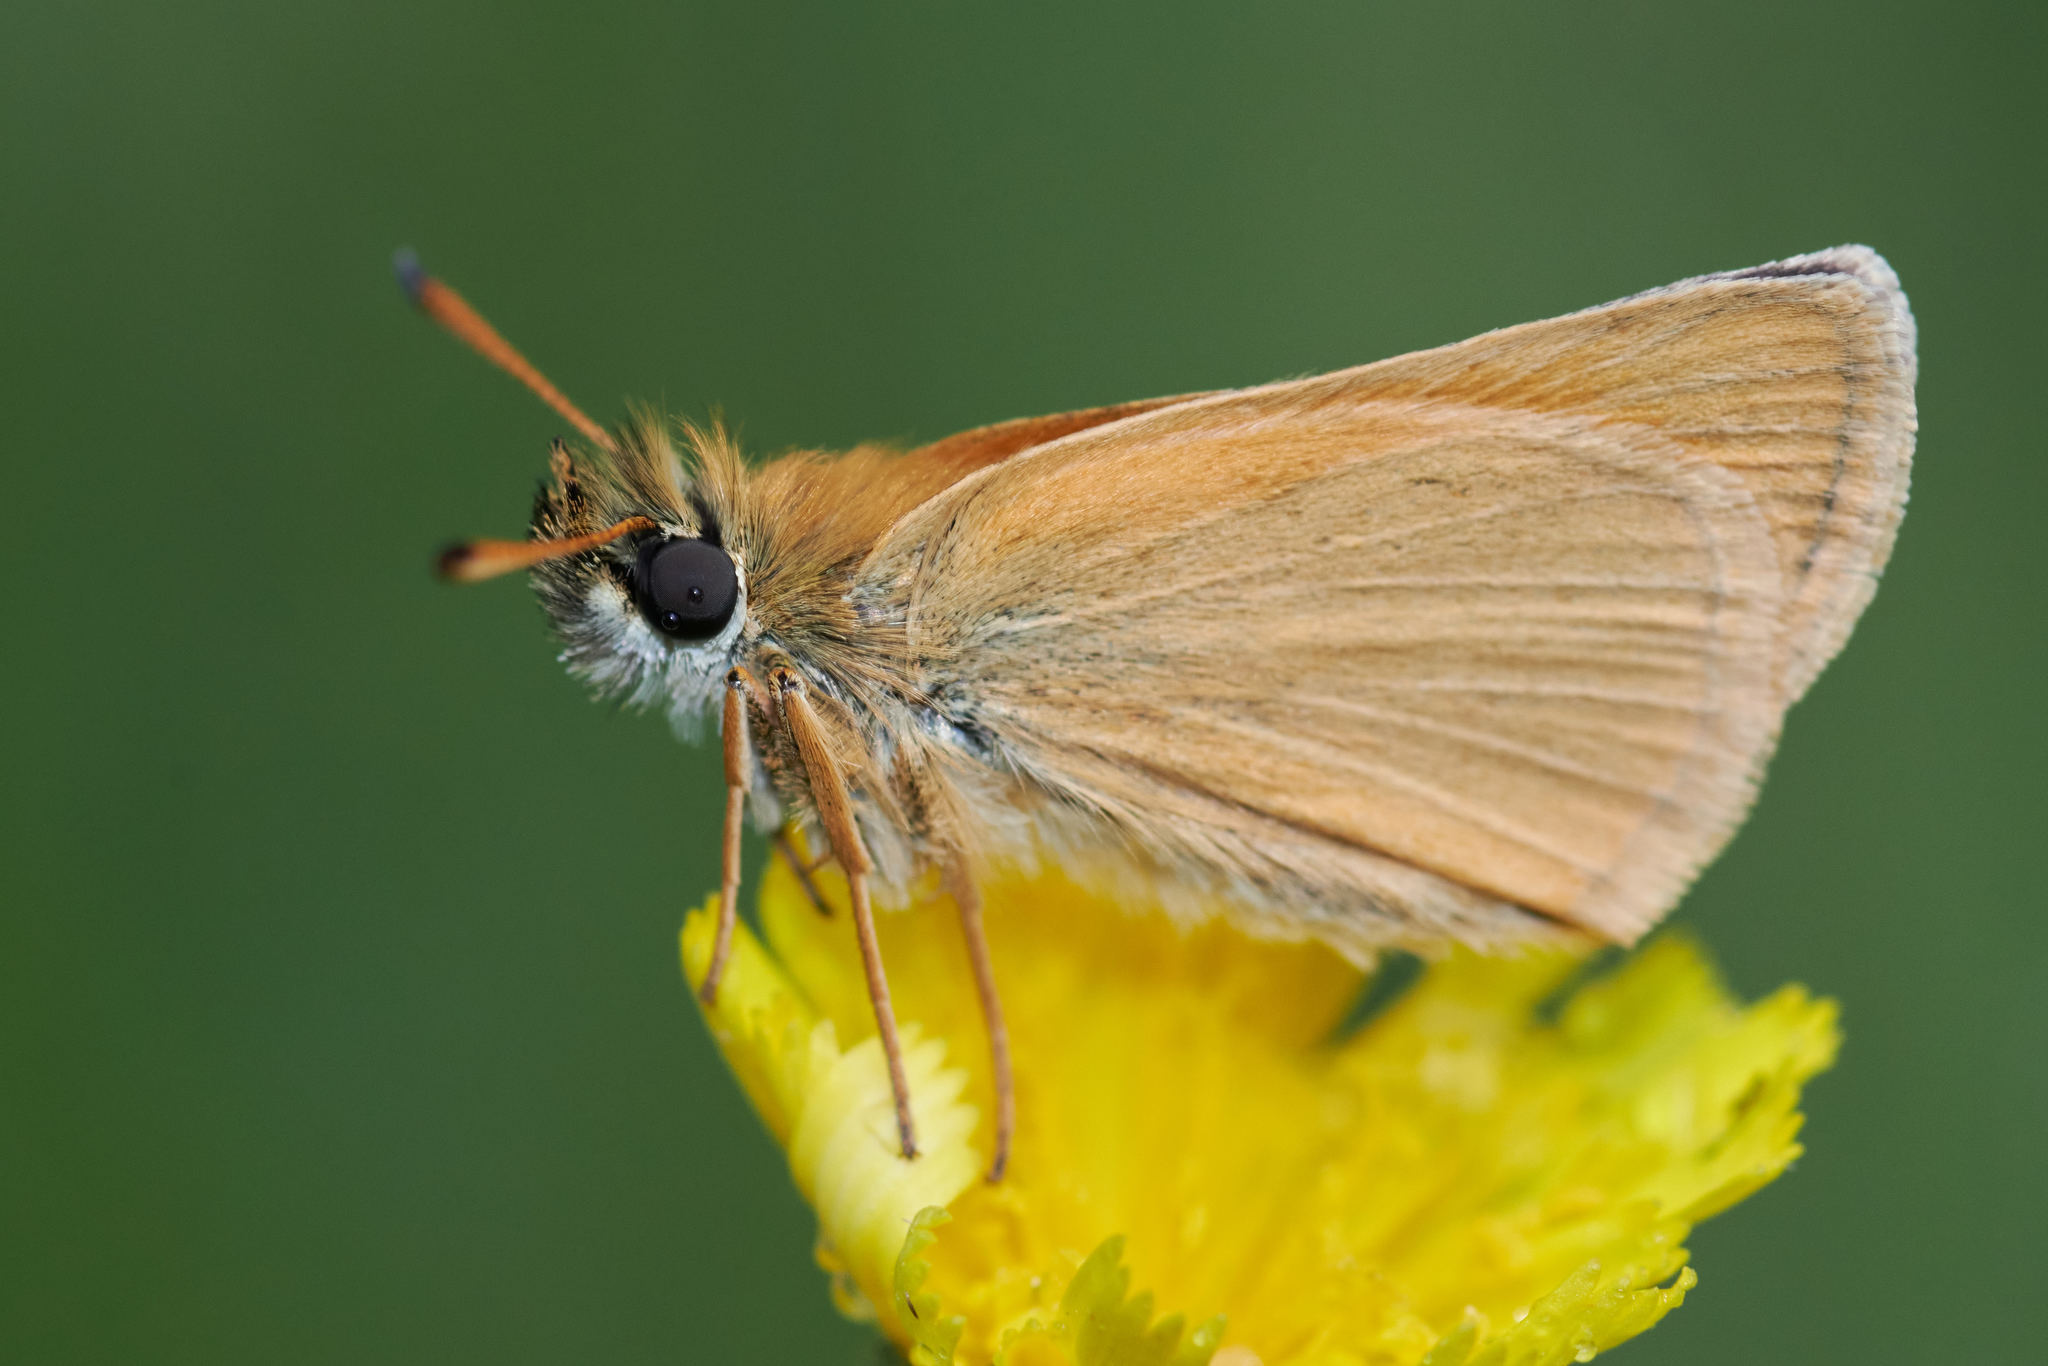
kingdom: Animalia
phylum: Arthropoda
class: Insecta
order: Lepidoptera
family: Hesperiidae
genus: Thymelicus
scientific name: Thymelicus lineola
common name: Essex skipper
